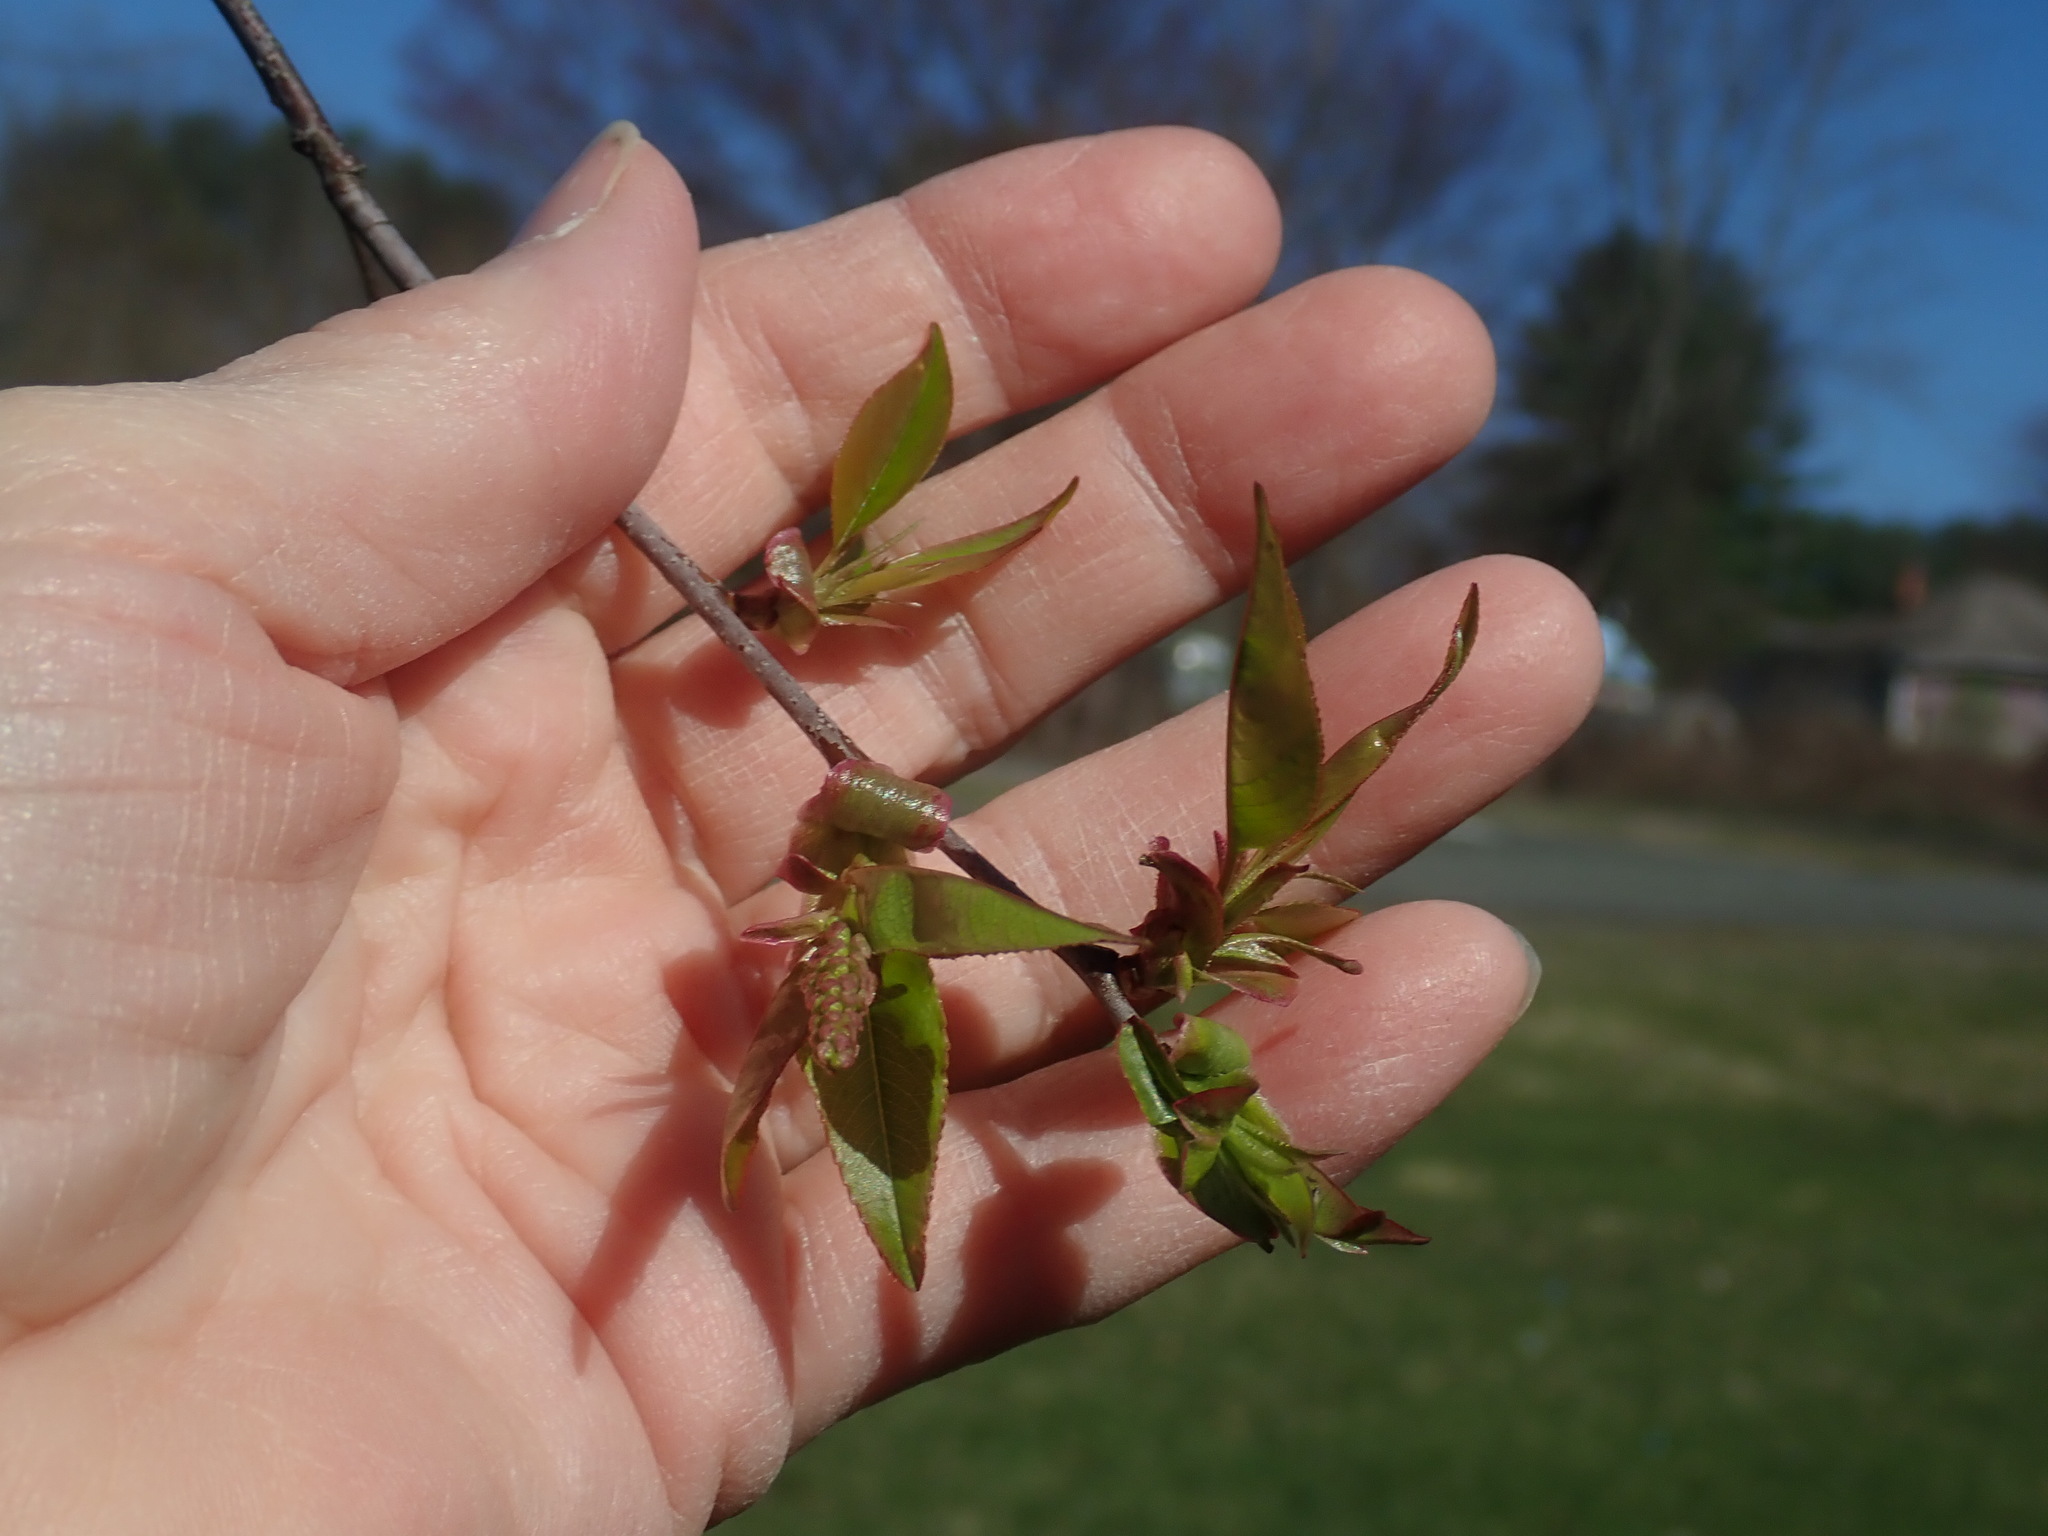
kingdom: Plantae
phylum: Tracheophyta
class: Magnoliopsida
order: Rosales
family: Rosaceae
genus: Prunus
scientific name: Prunus serotina
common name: Black cherry
